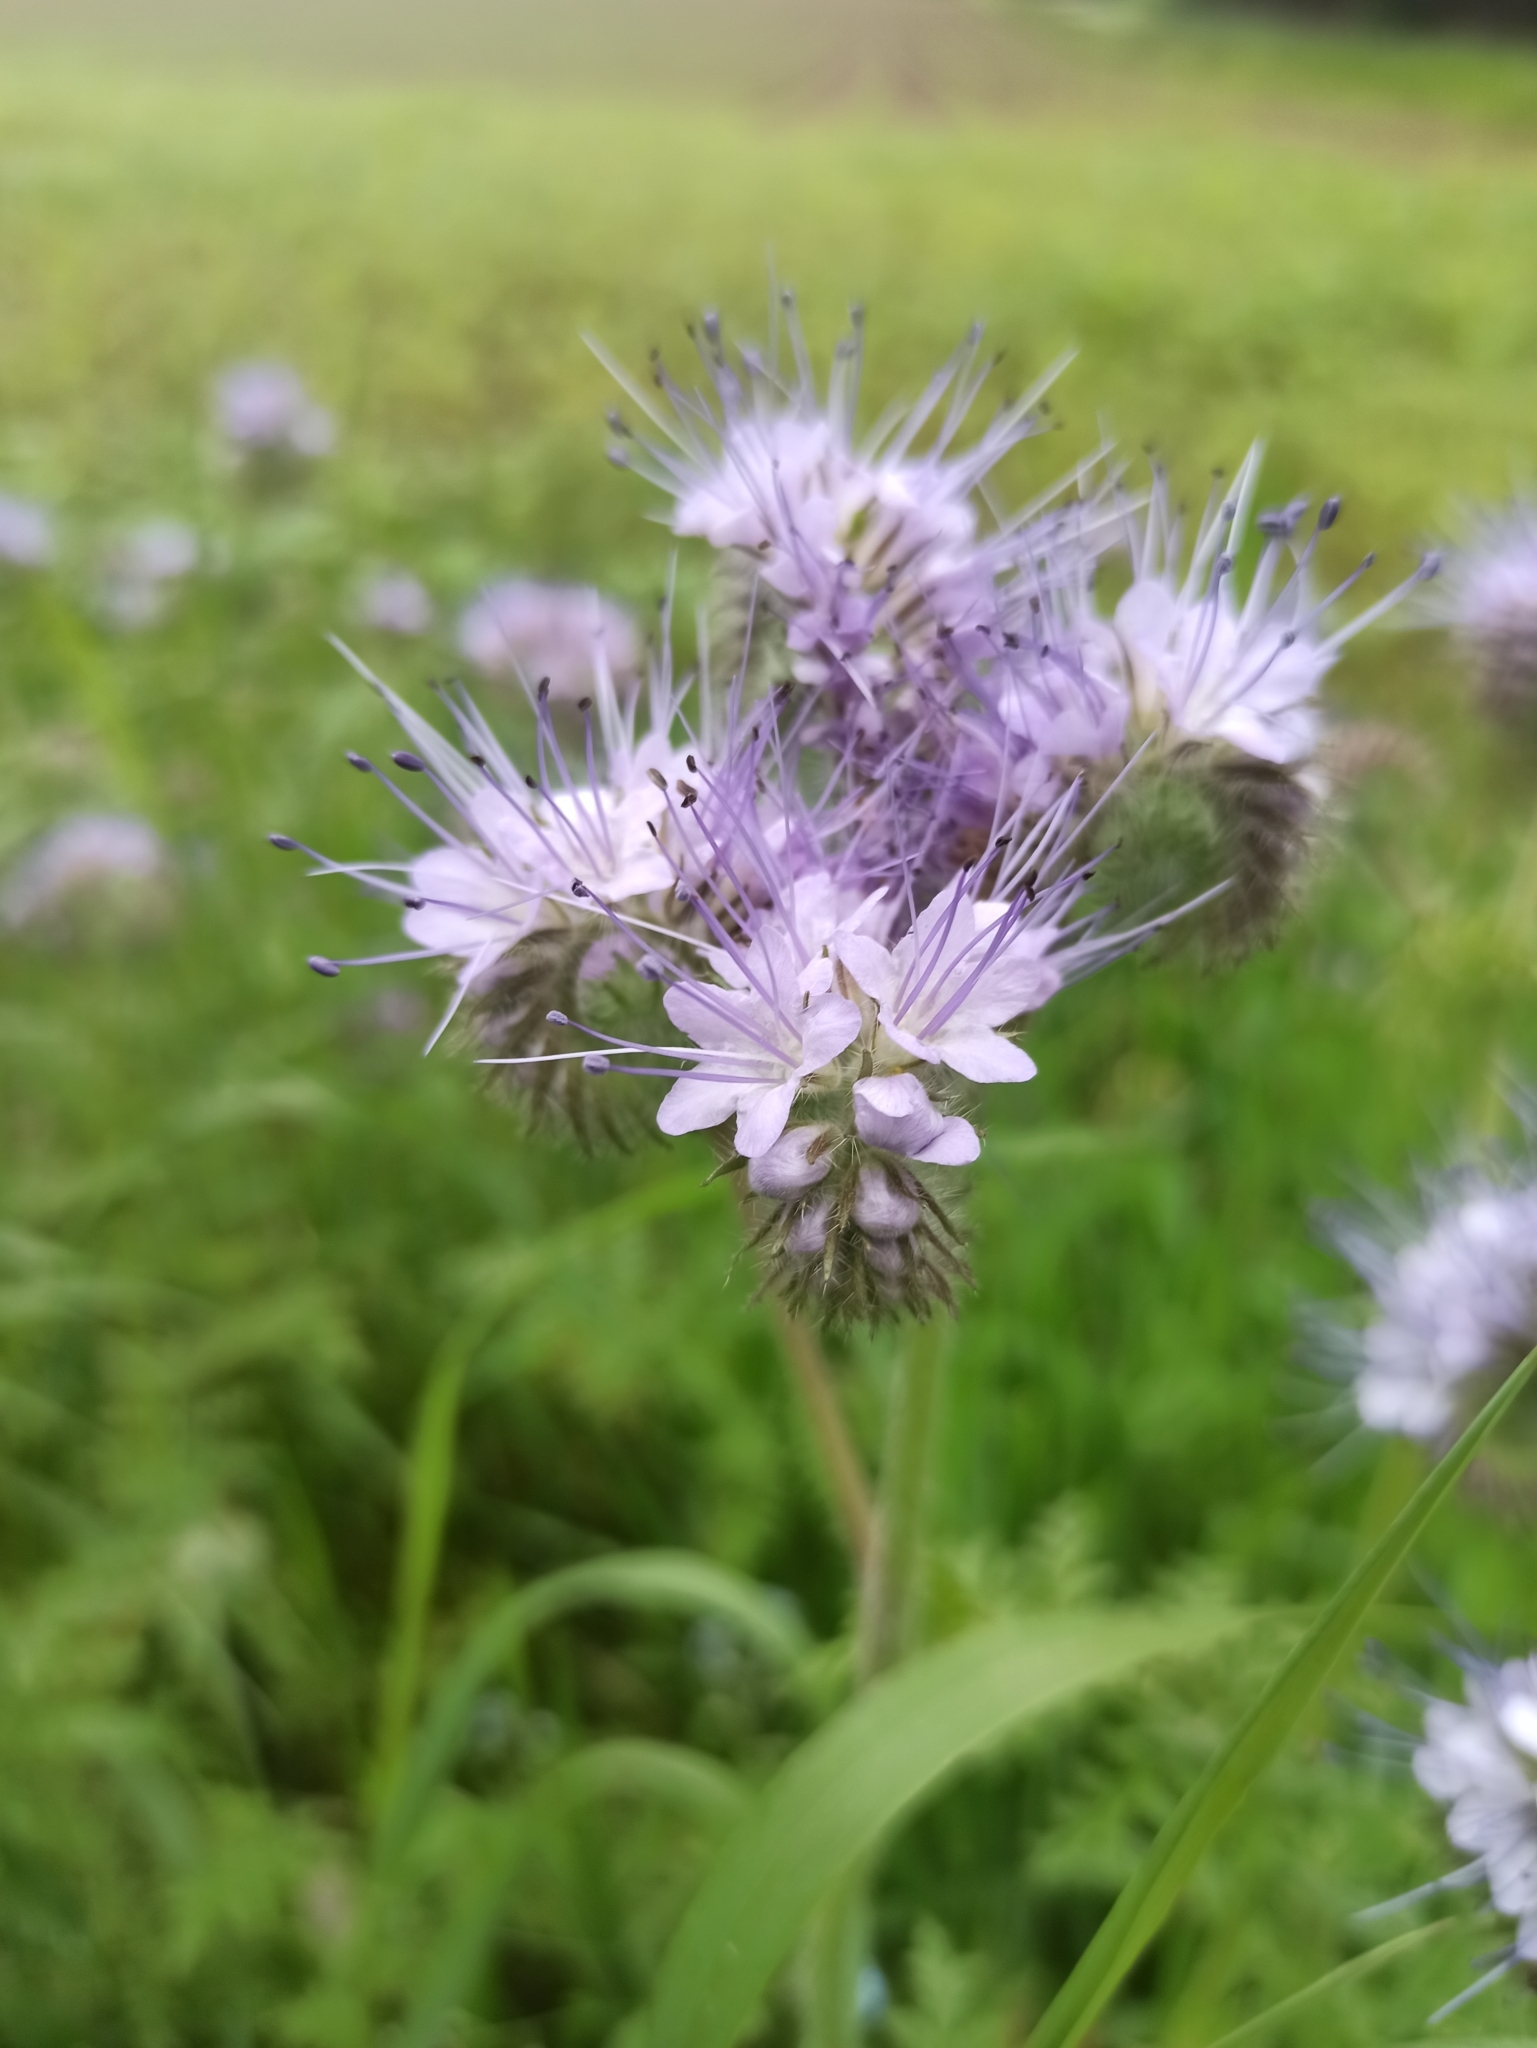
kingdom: Plantae
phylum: Tracheophyta
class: Magnoliopsida
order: Boraginales
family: Hydrophyllaceae
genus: Phacelia
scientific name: Phacelia tanacetifolia
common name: Phacelia
